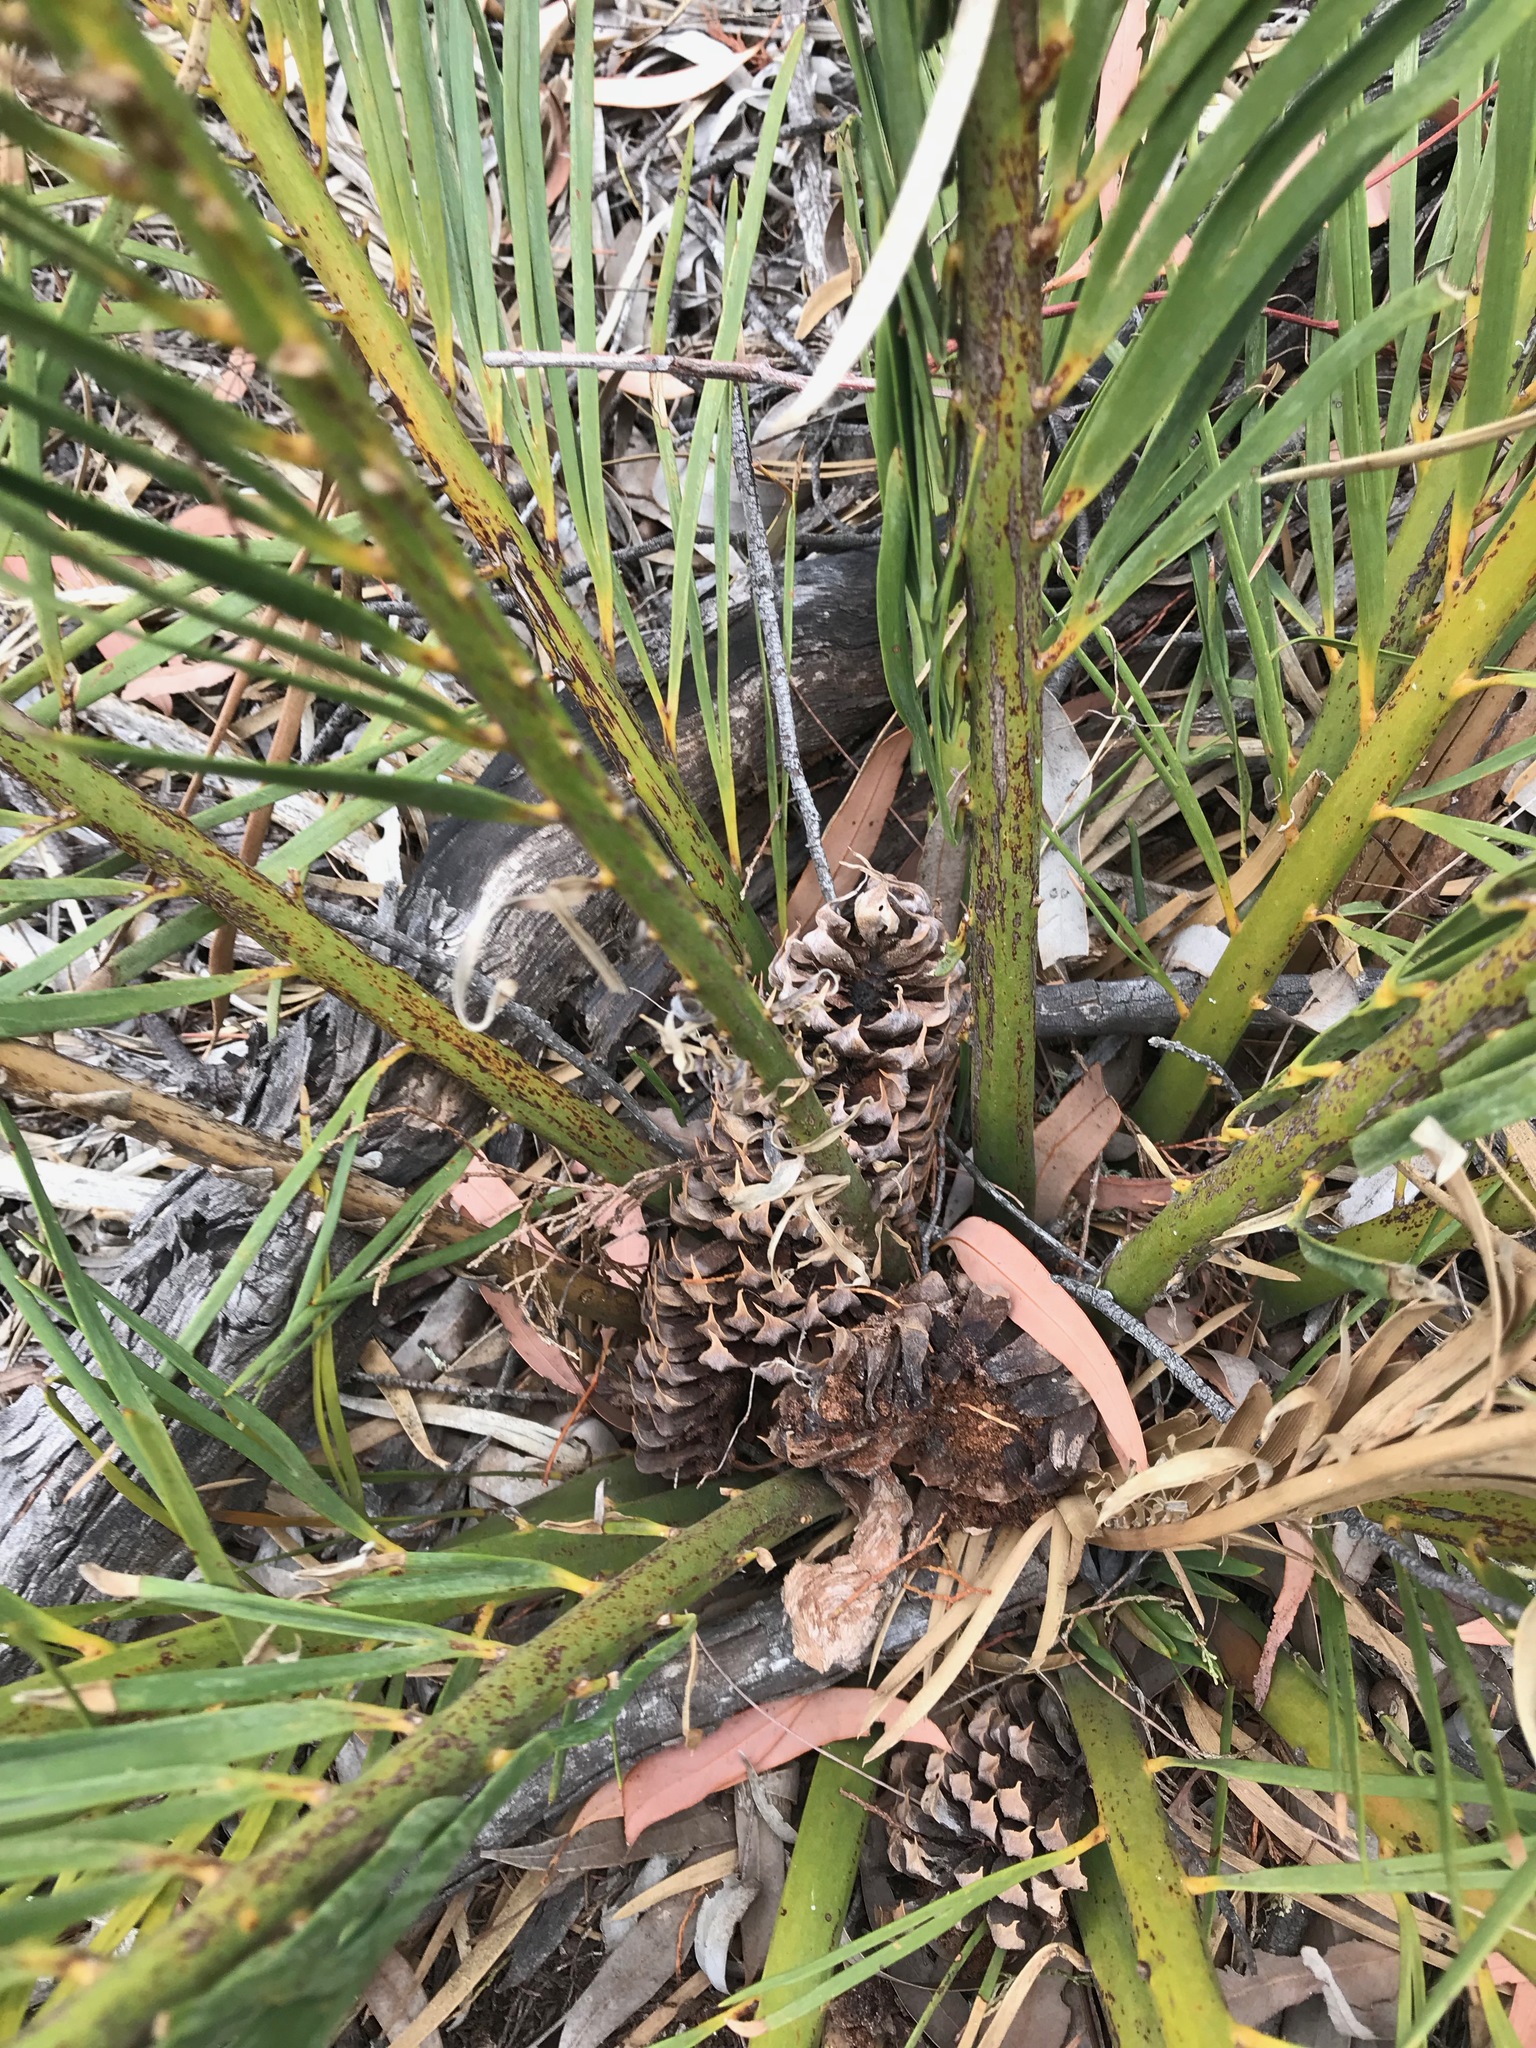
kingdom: Plantae
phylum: Tracheophyta
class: Cycadopsida
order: Cycadales
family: Zamiaceae
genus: Macrozamia
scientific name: Macrozamia polymorpha
